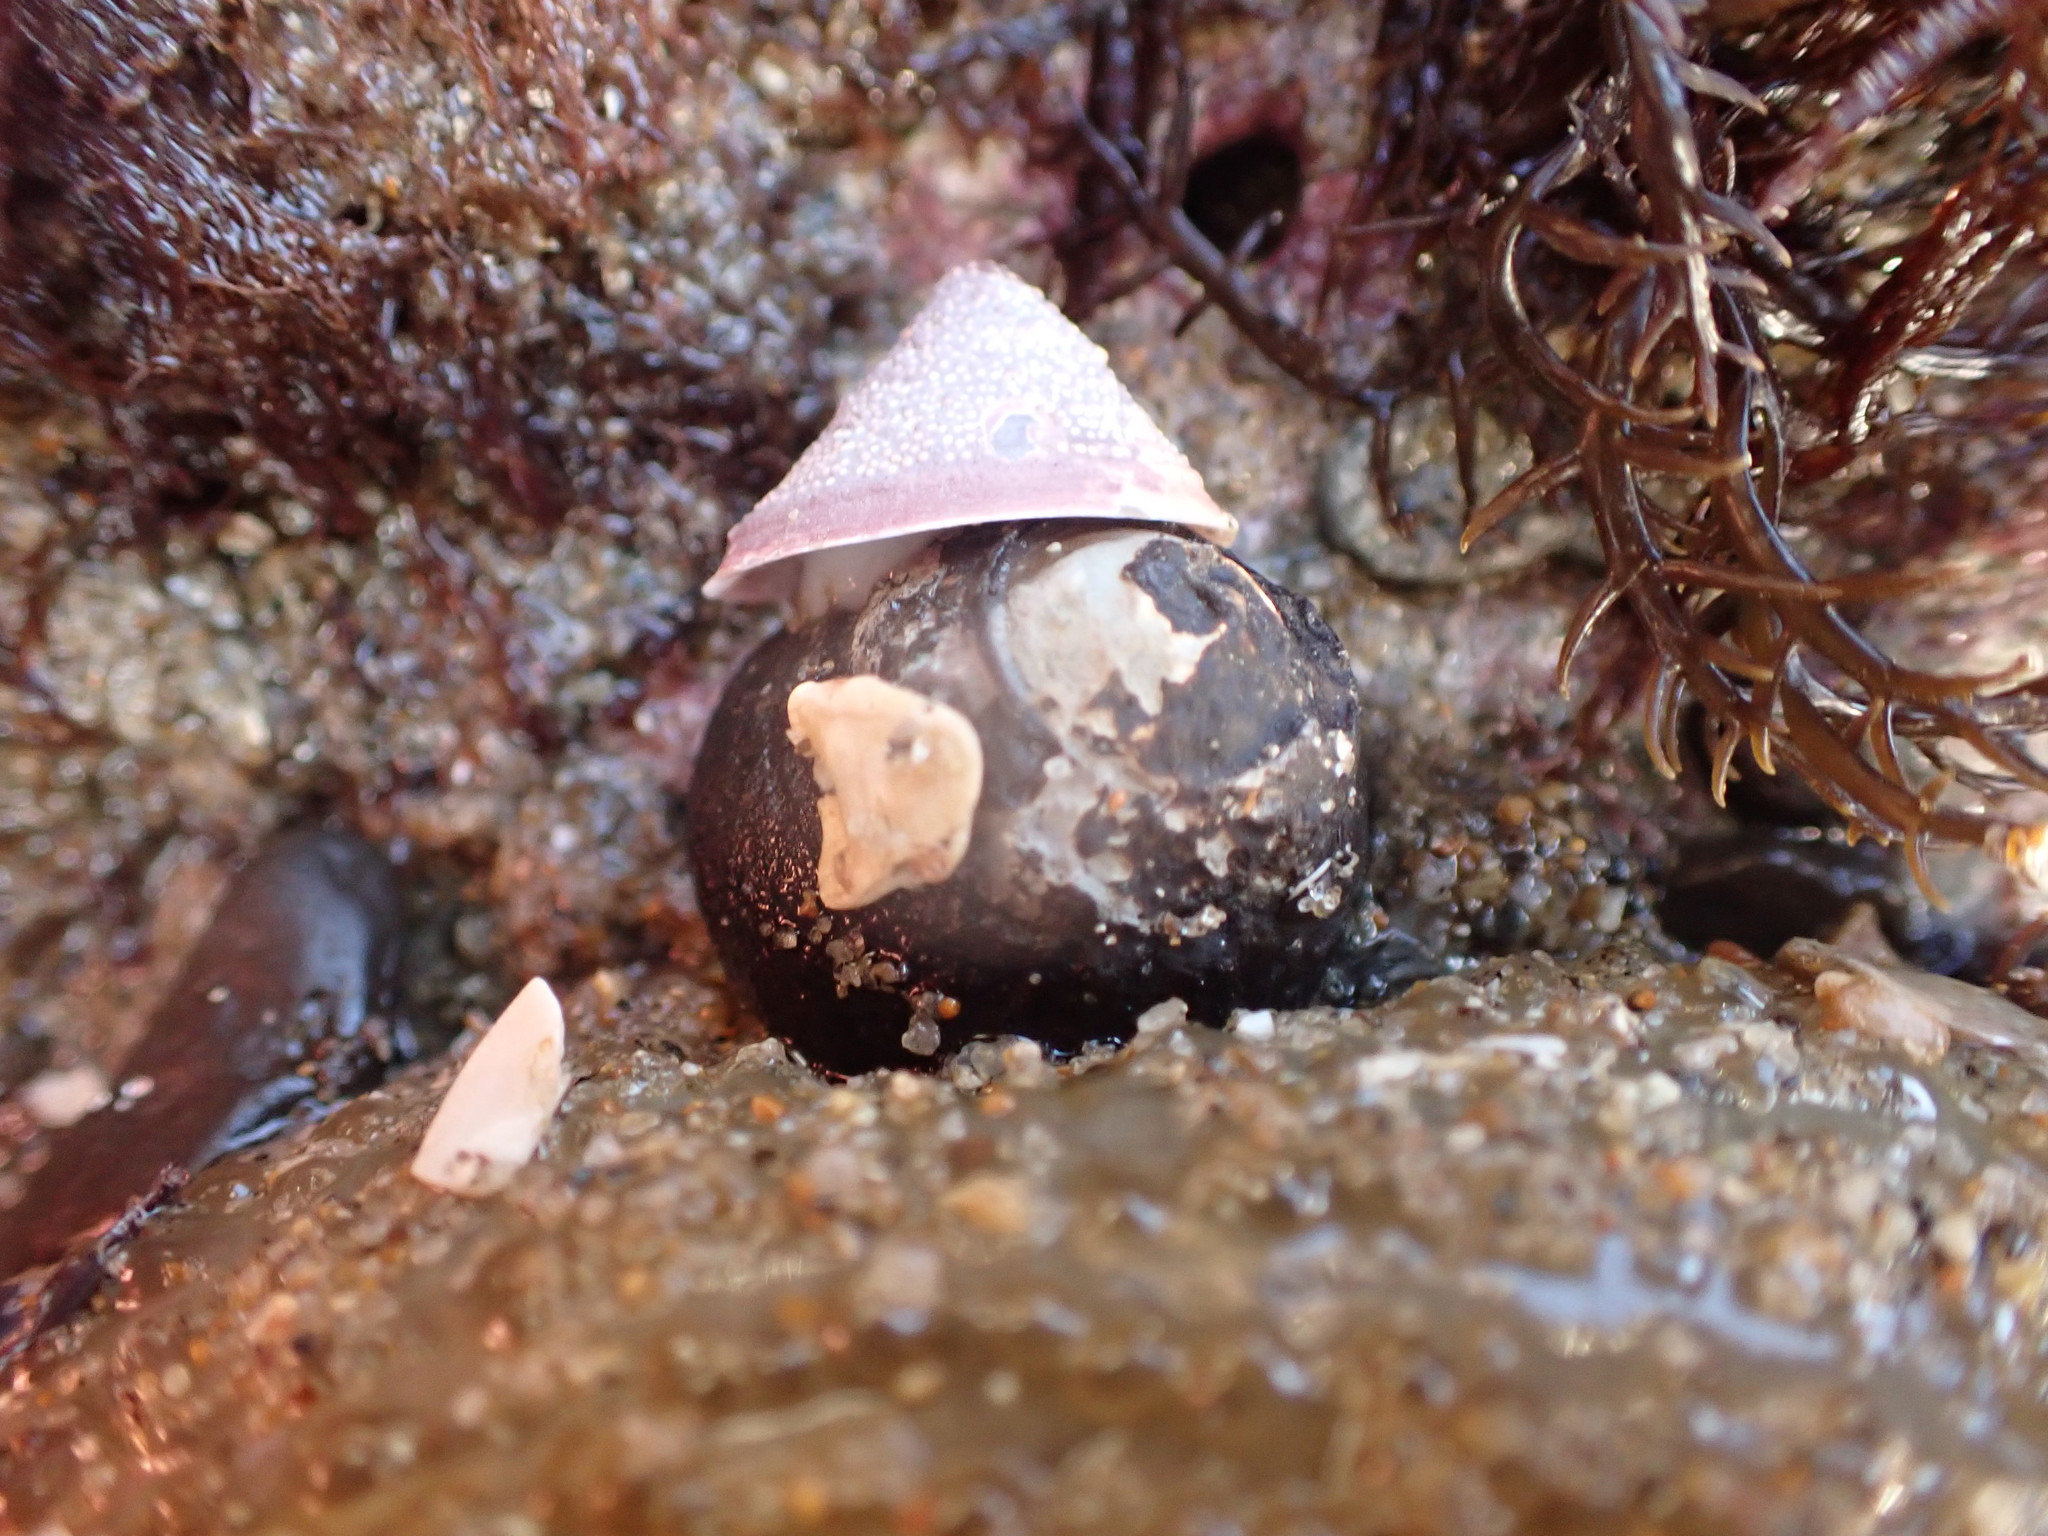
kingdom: Animalia
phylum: Mollusca
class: Gastropoda
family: Acmaeidae
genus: Acmaea
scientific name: Acmaea mitra
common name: Pacific white cap limpet
